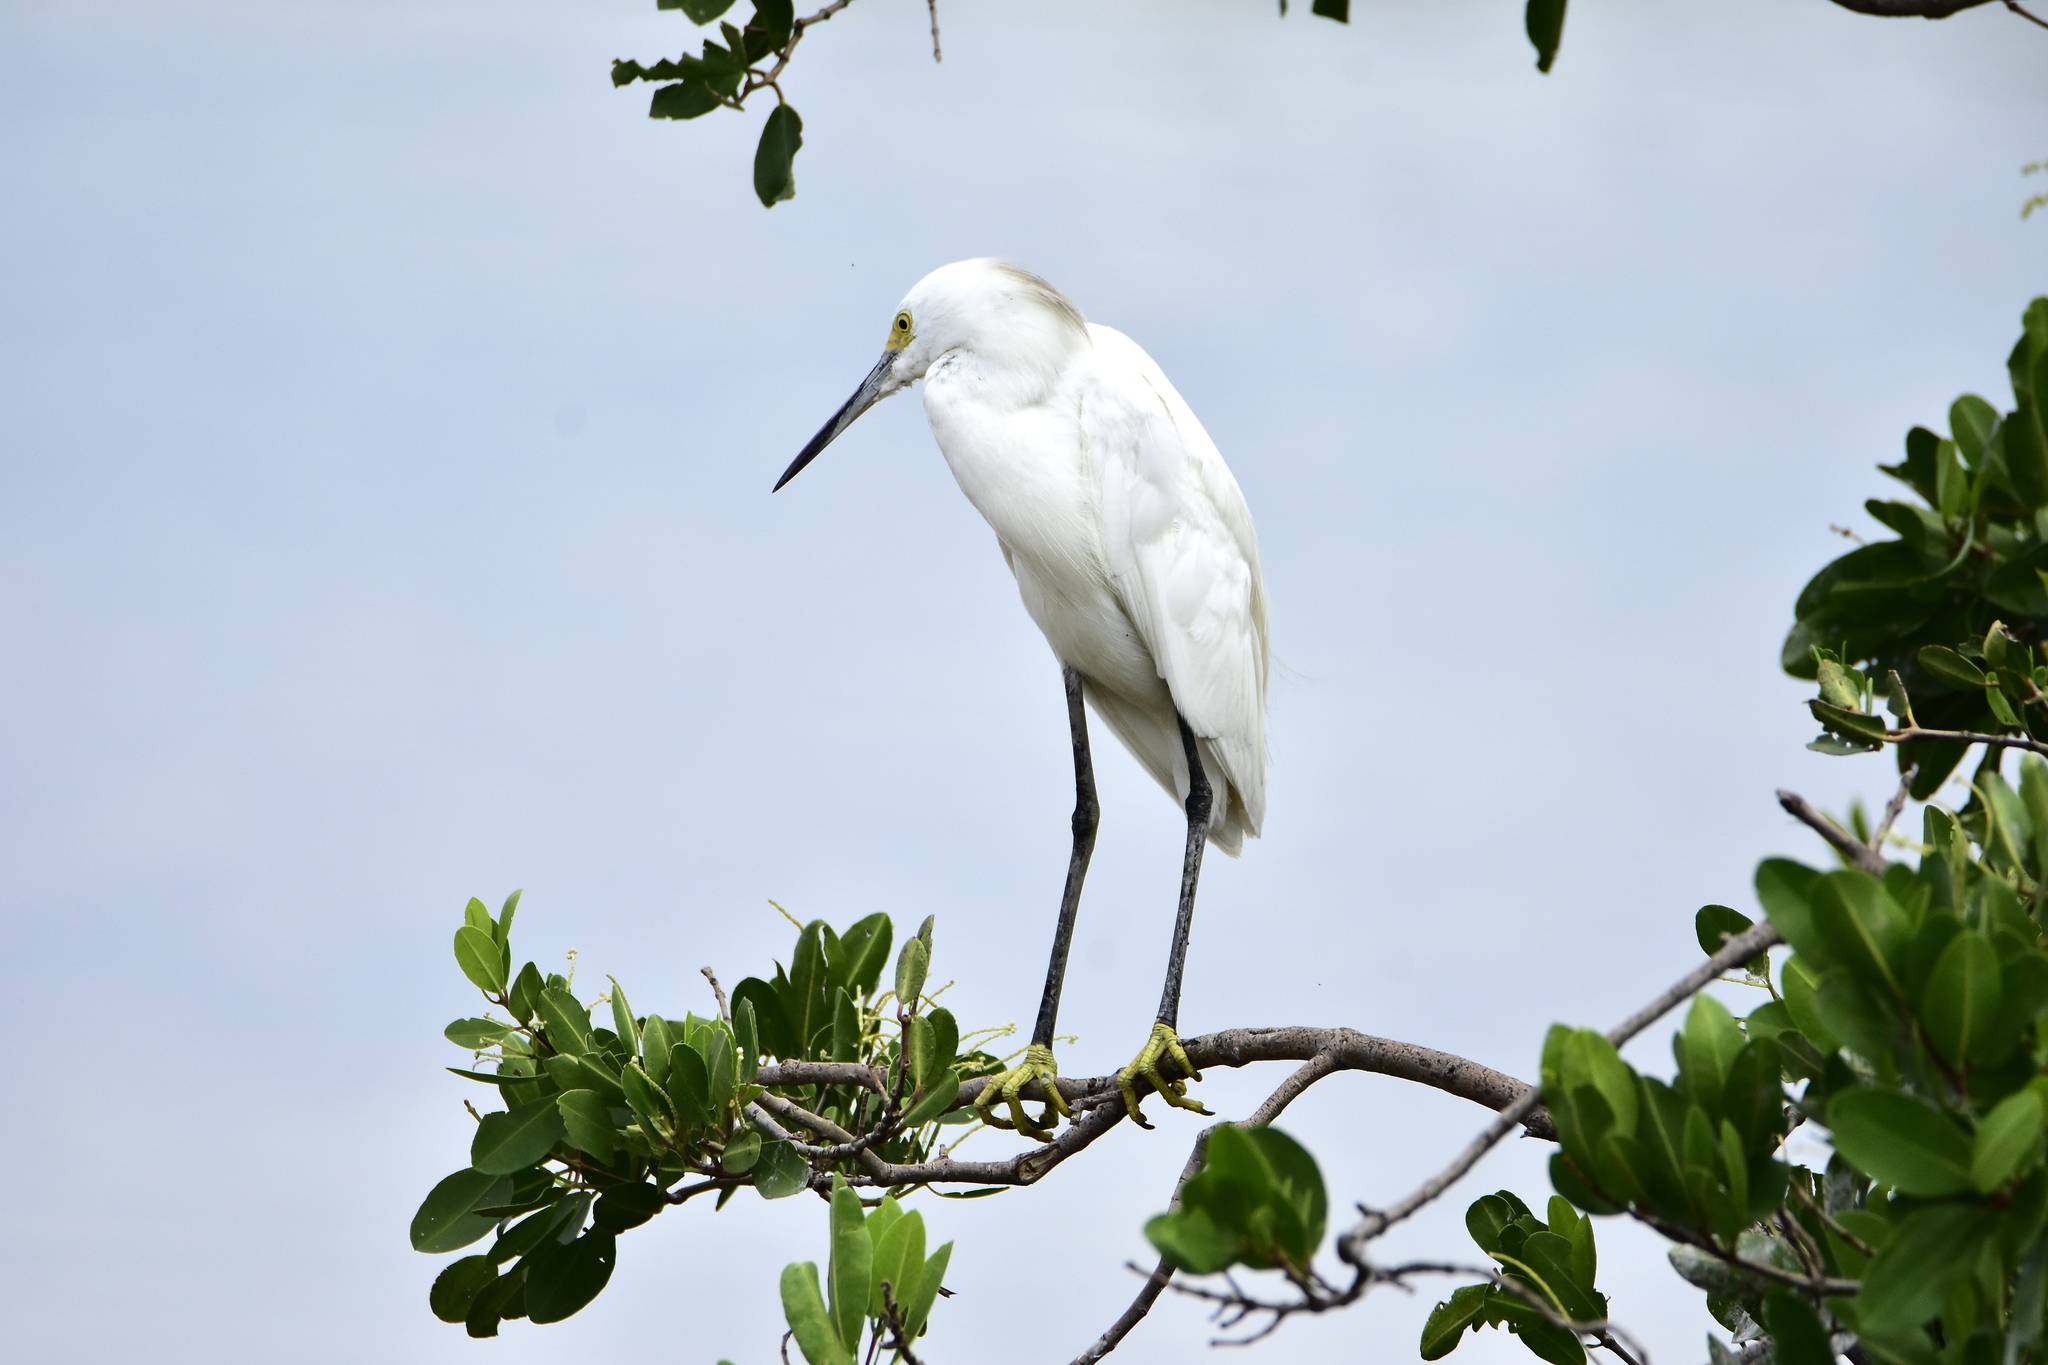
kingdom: Animalia
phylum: Chordata
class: Aves
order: Pelecaniformes
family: Ardeidae
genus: Egretta
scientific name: Egretta thula
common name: Snowy egret
